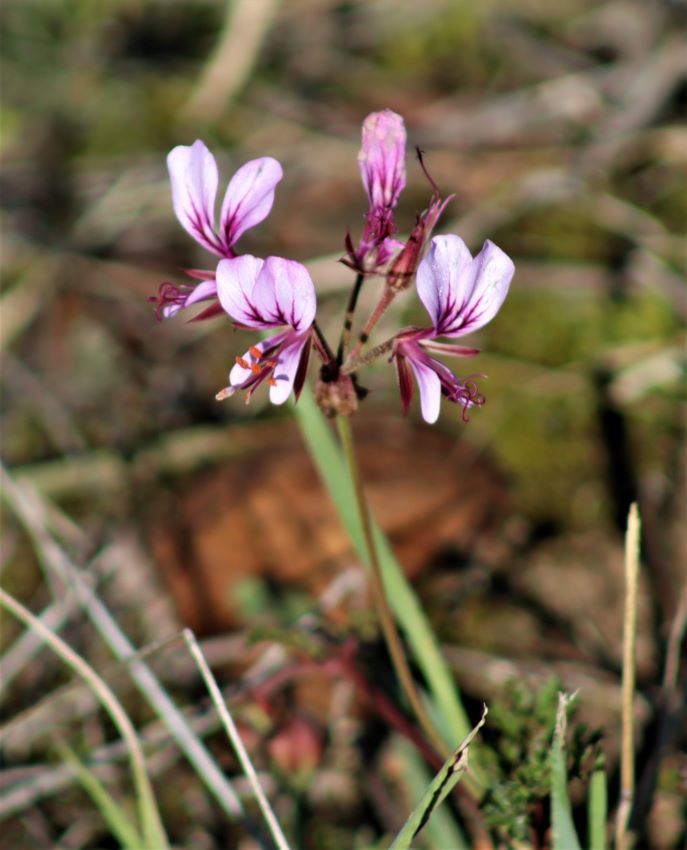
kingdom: Plantae
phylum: Tracheophyta
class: Magnoliopsida
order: Geraniales
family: Geraniaceae
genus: Pelargonium
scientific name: Pelargonium myrrhifolium
